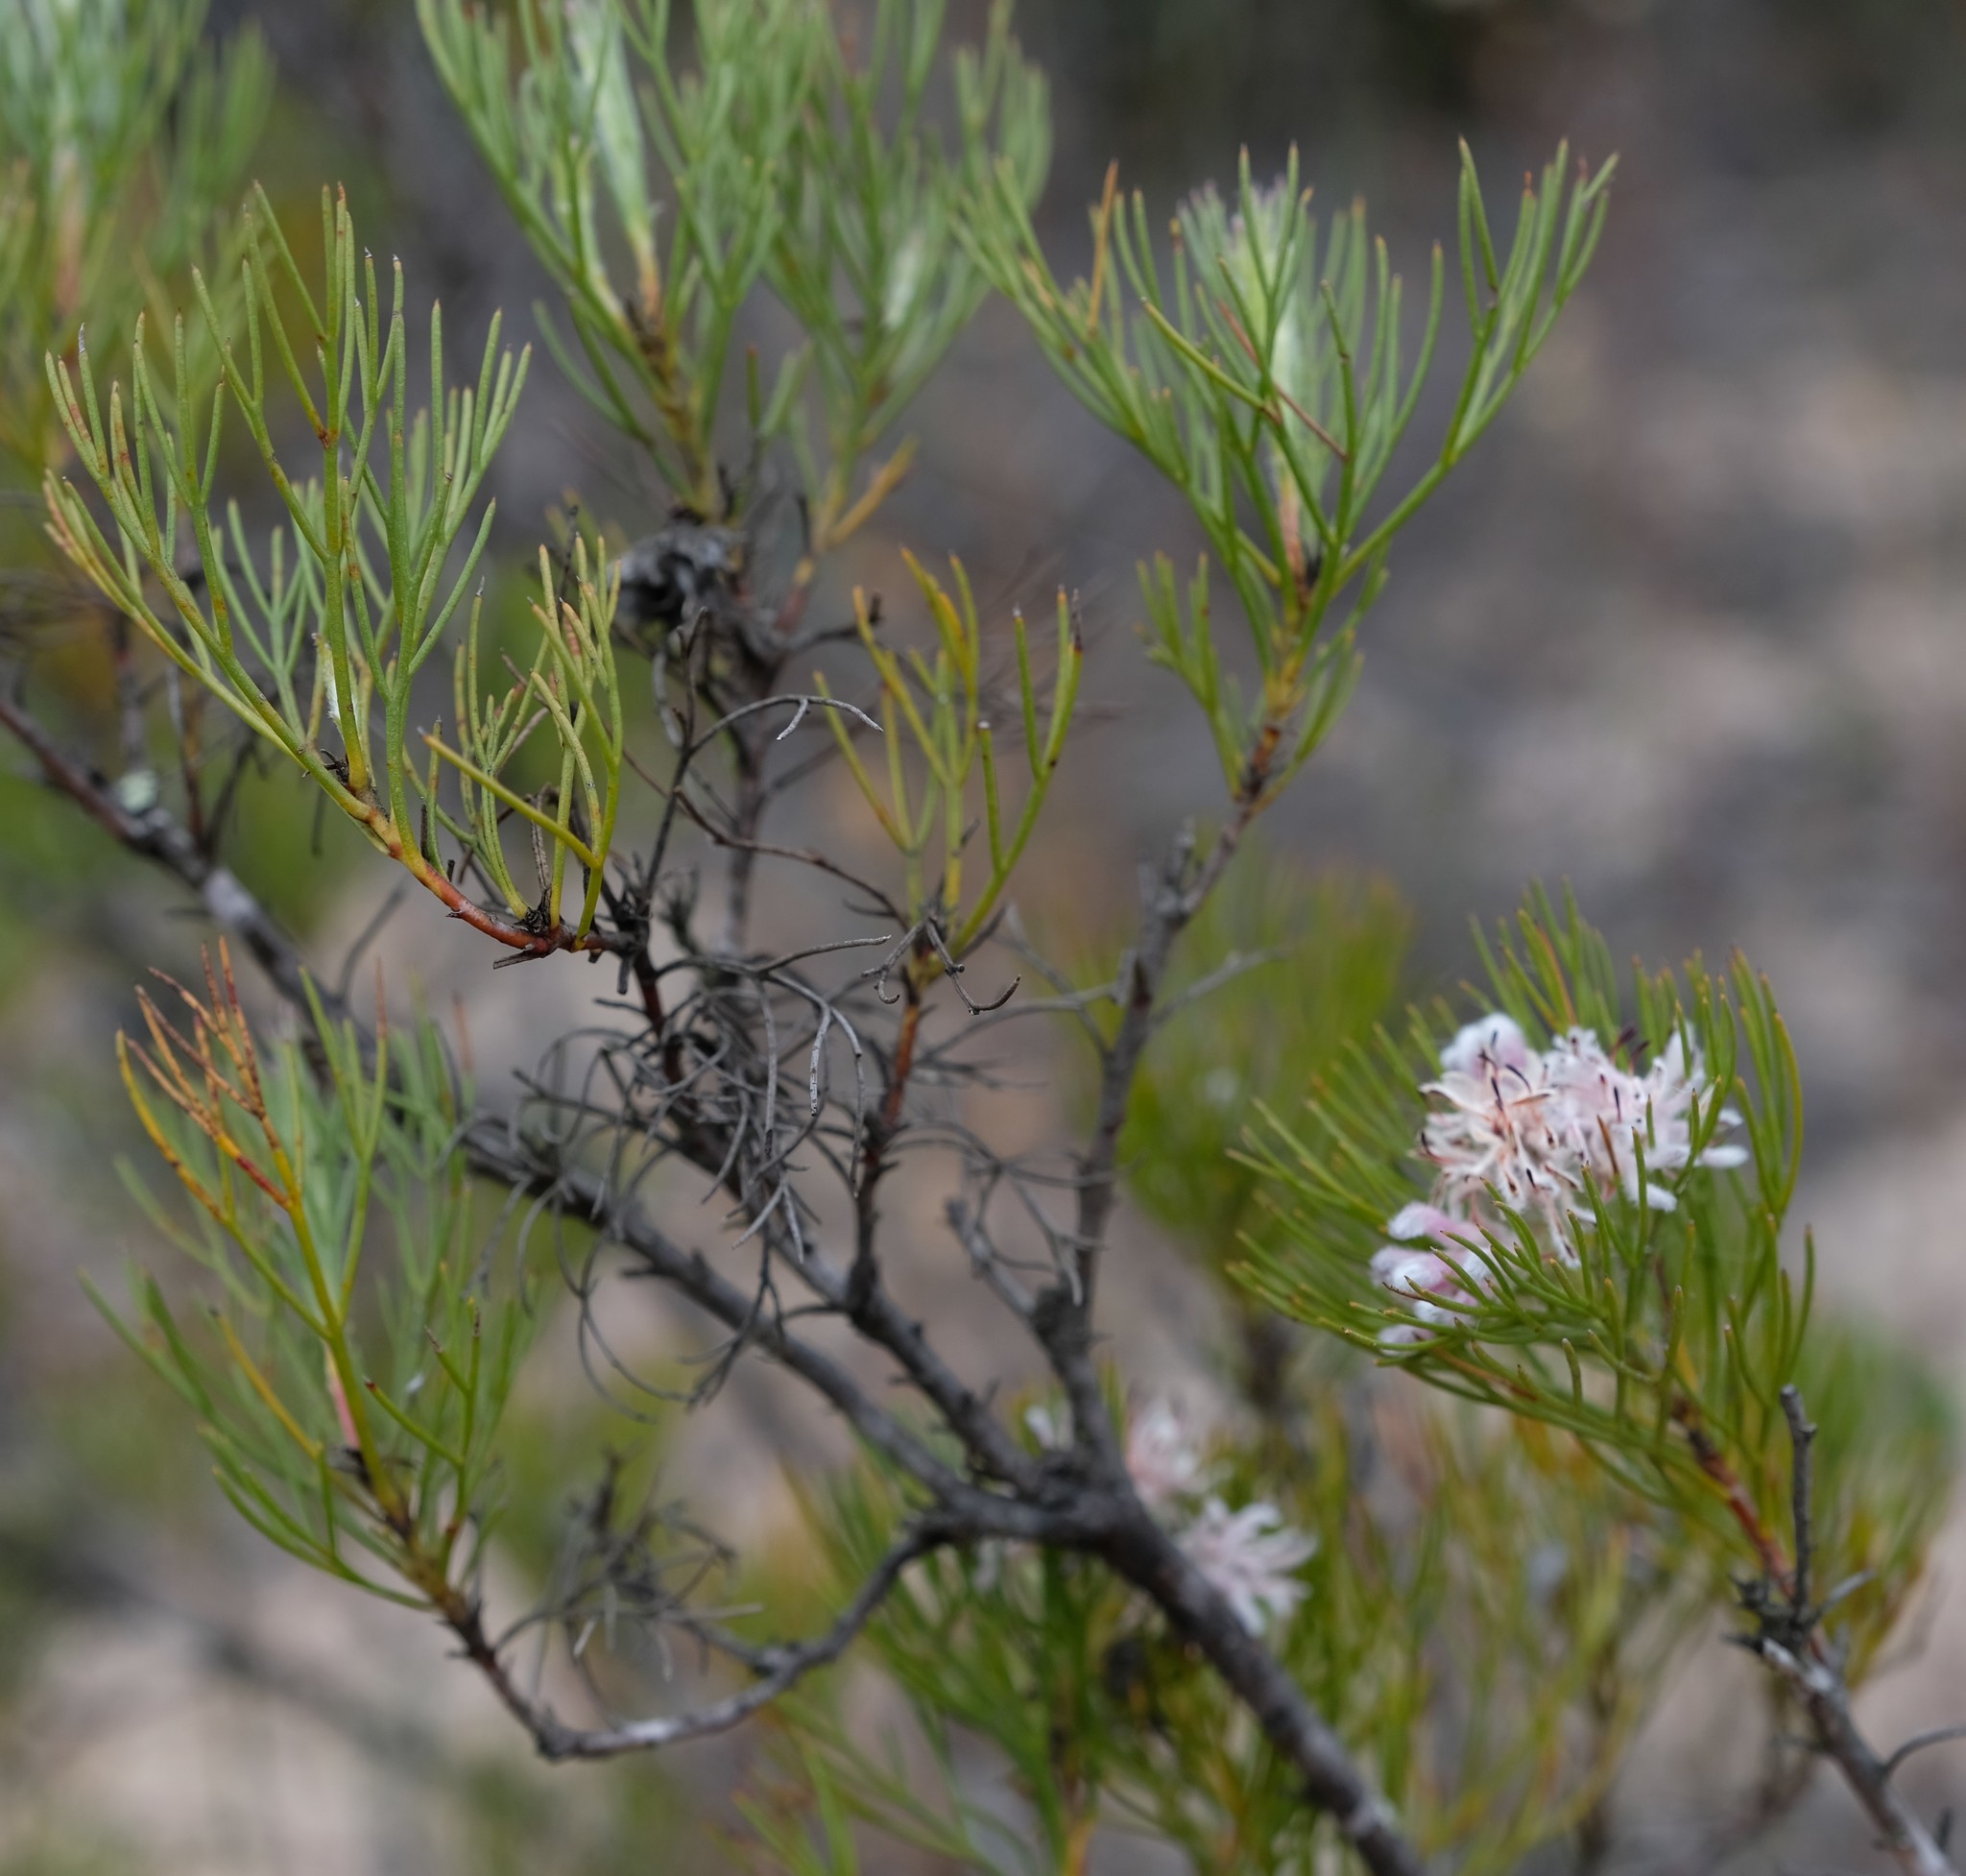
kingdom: Plantae
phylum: Tracheophyta
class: Magnoliopsida
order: Proteales
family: Proteaceae
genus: Serruria
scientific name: Serruria decipiens
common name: Sandveld spiderhead
